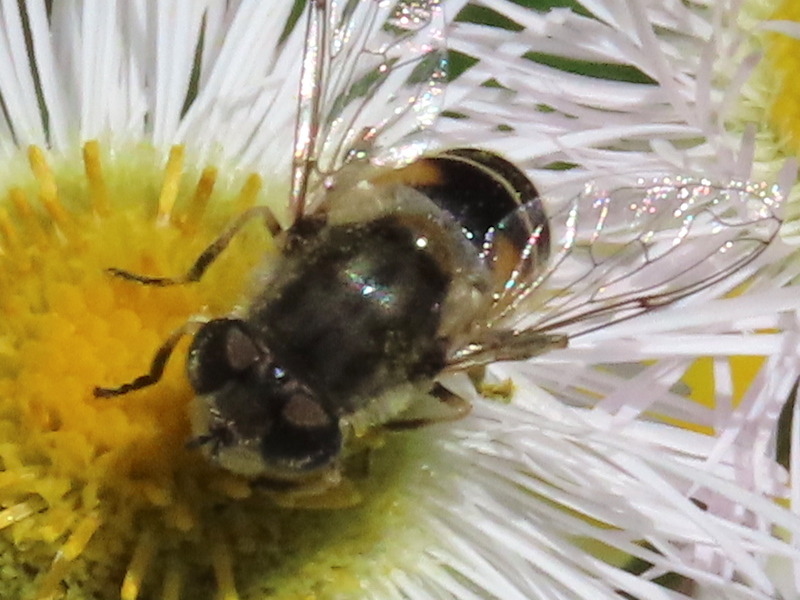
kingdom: Animalia
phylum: Arthropoda
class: Insecta
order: Diptera
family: Syrphidae
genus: Eristalis
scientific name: Eristalis arbustorum
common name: Hover fly
